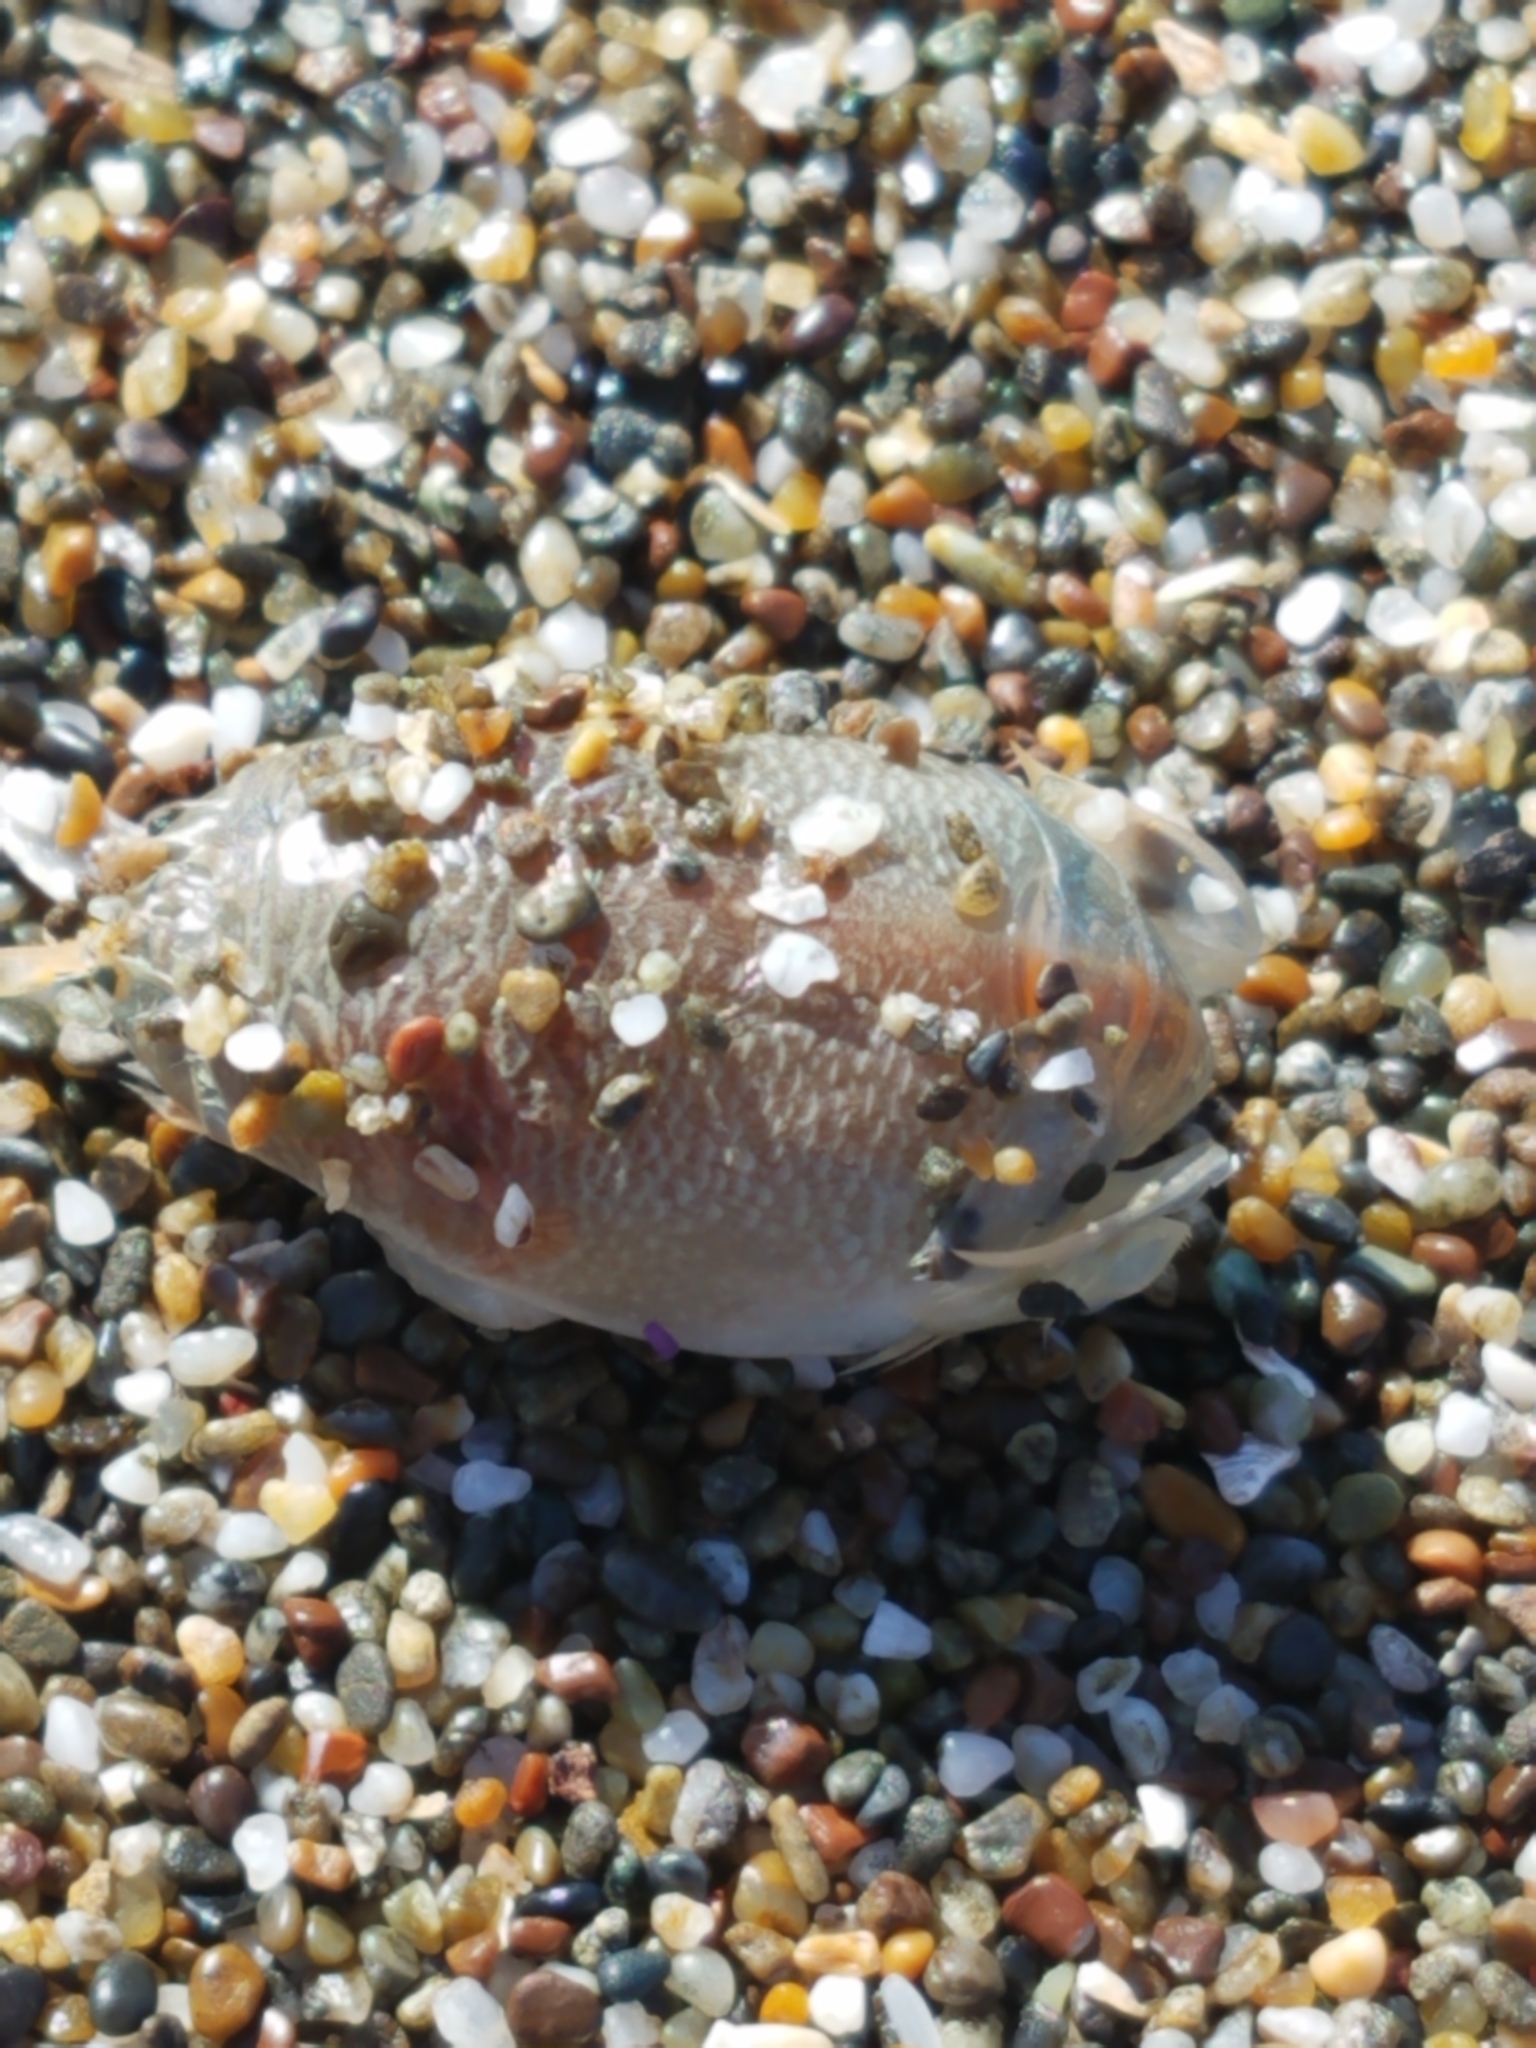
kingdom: Animalia
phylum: Arthropoda
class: Malacostraca
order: Decapoda
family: Hippidae
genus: Emerita
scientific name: Emerita analoga
